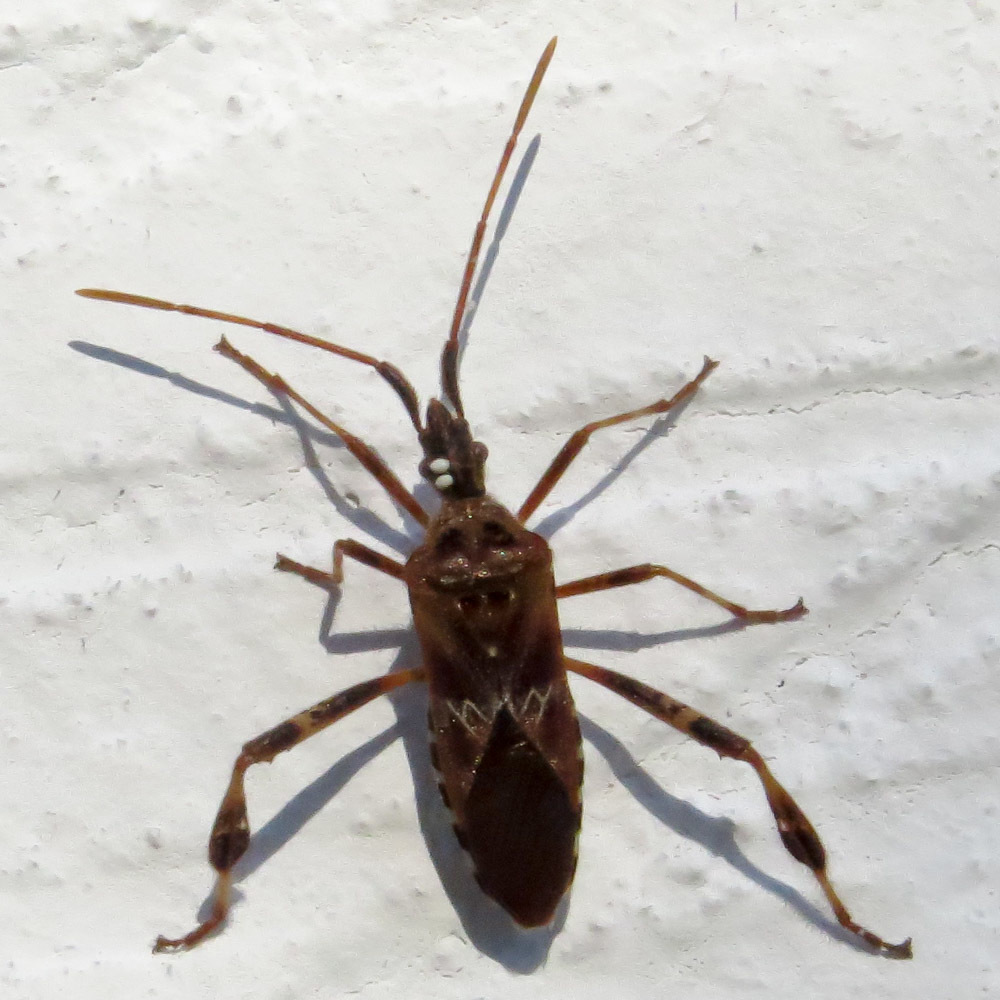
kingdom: Animalia
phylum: Arthropoda
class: Insecta
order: Hemiptera
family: Coreidae
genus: Leptoglossus
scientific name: Leptoglossus occidentalis
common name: Western conifer-seed bug
